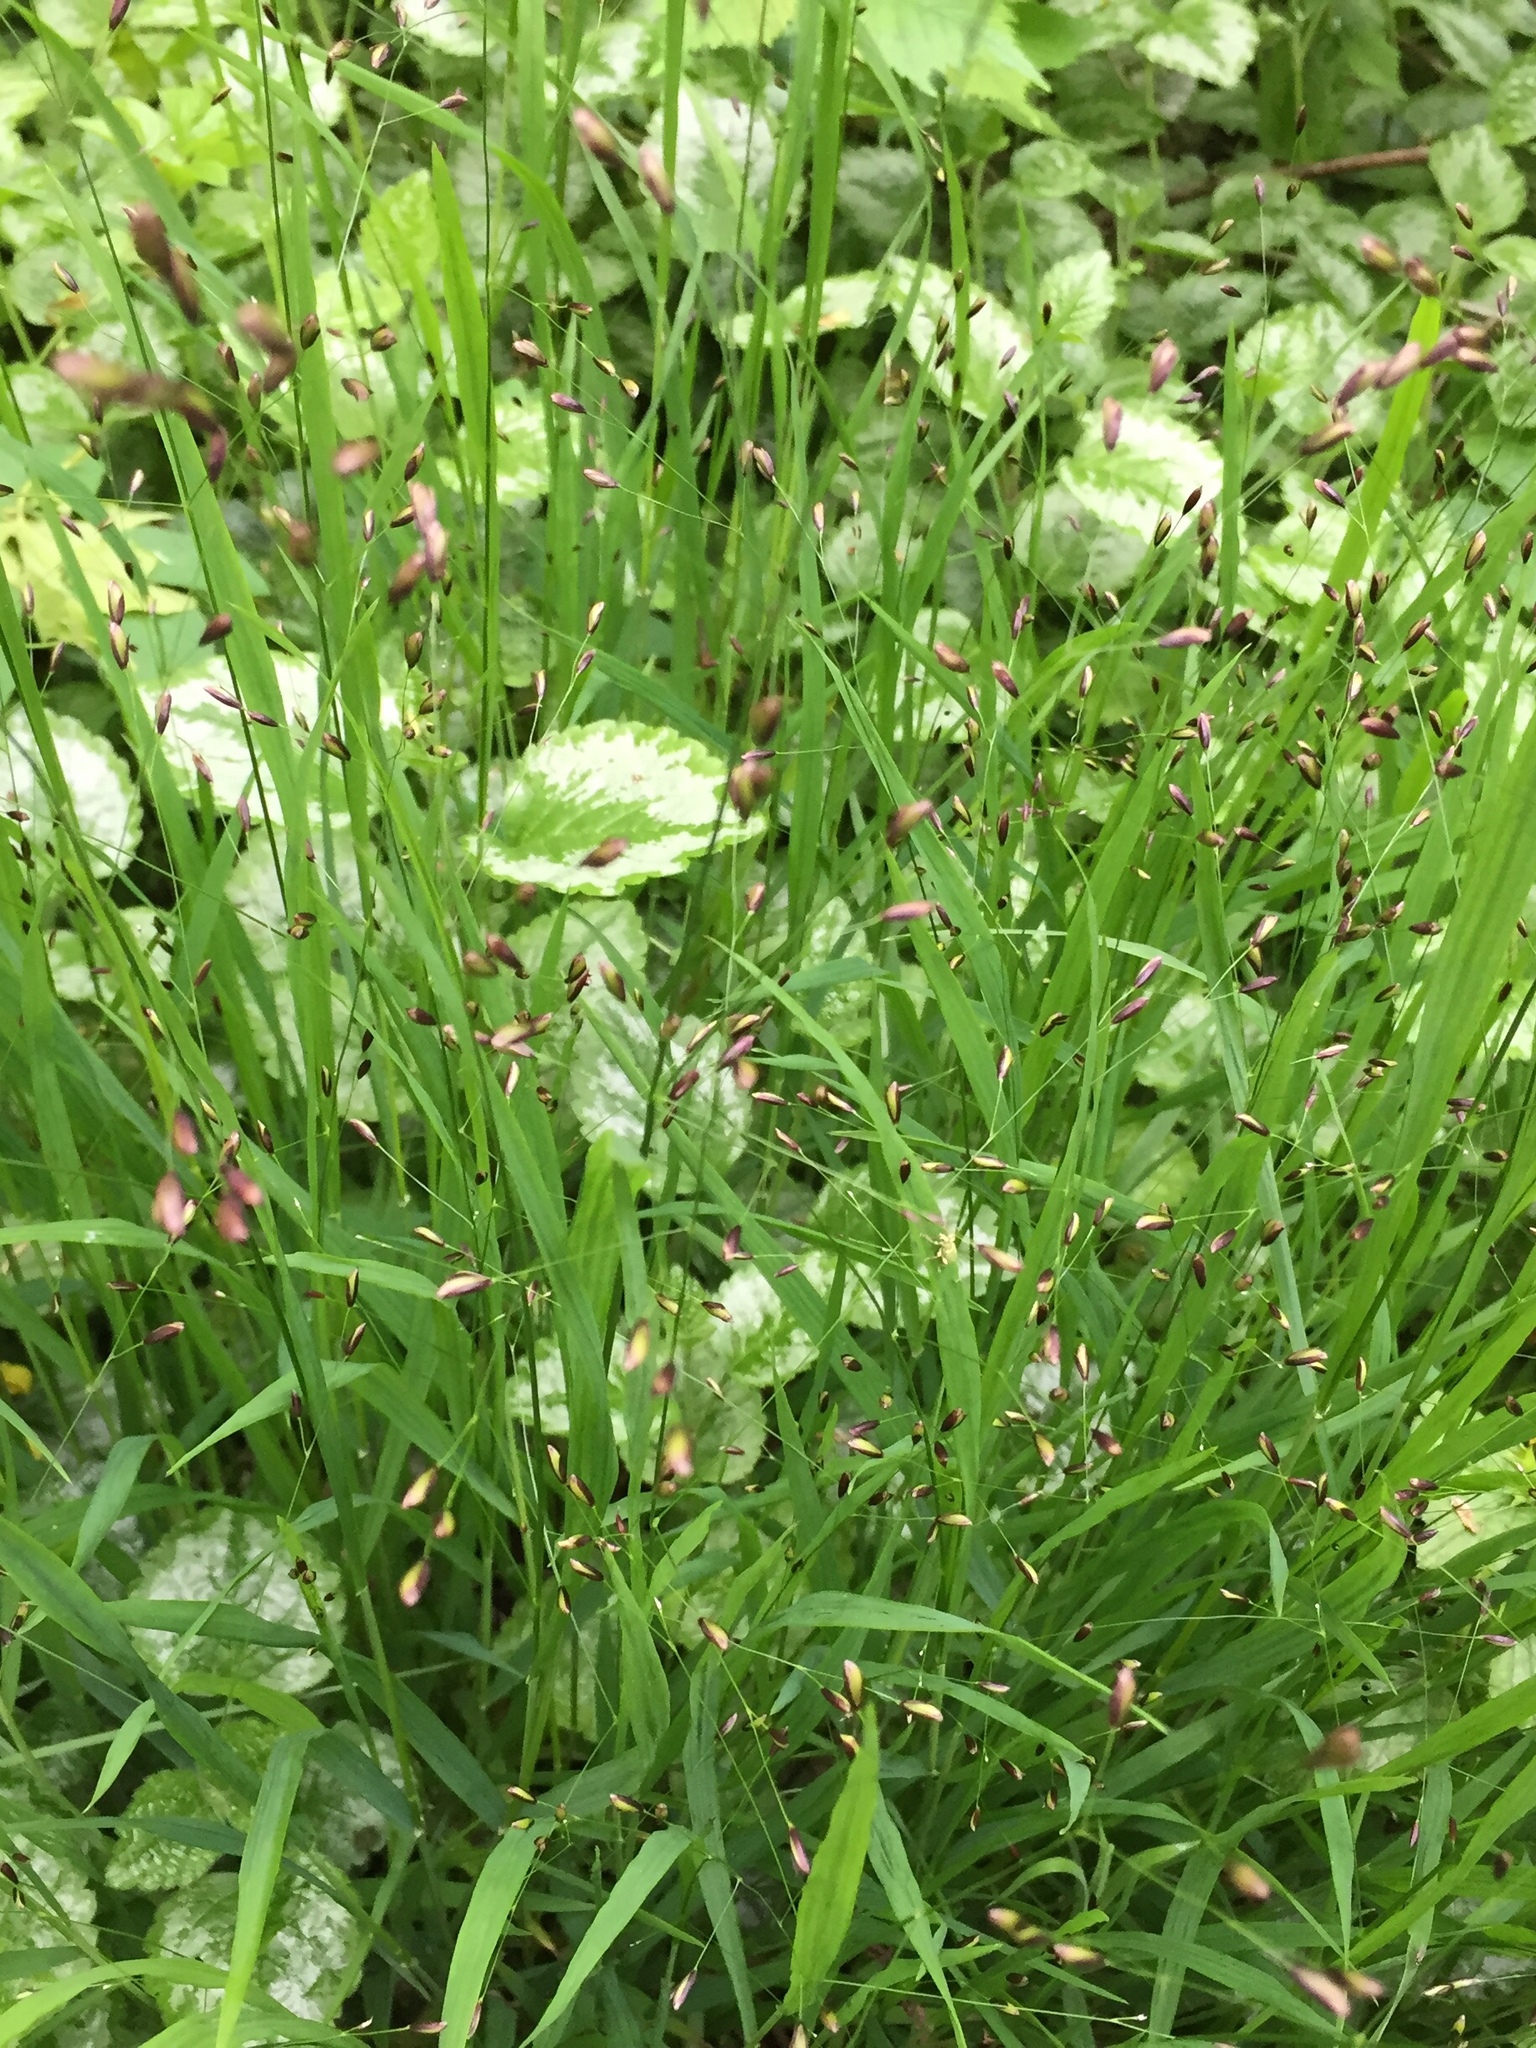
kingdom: Plantae
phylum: Tracheophyta
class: Liliopsida
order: Poales
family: Poaceae
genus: Melica
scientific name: Melica uniflora
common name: Wood melick
